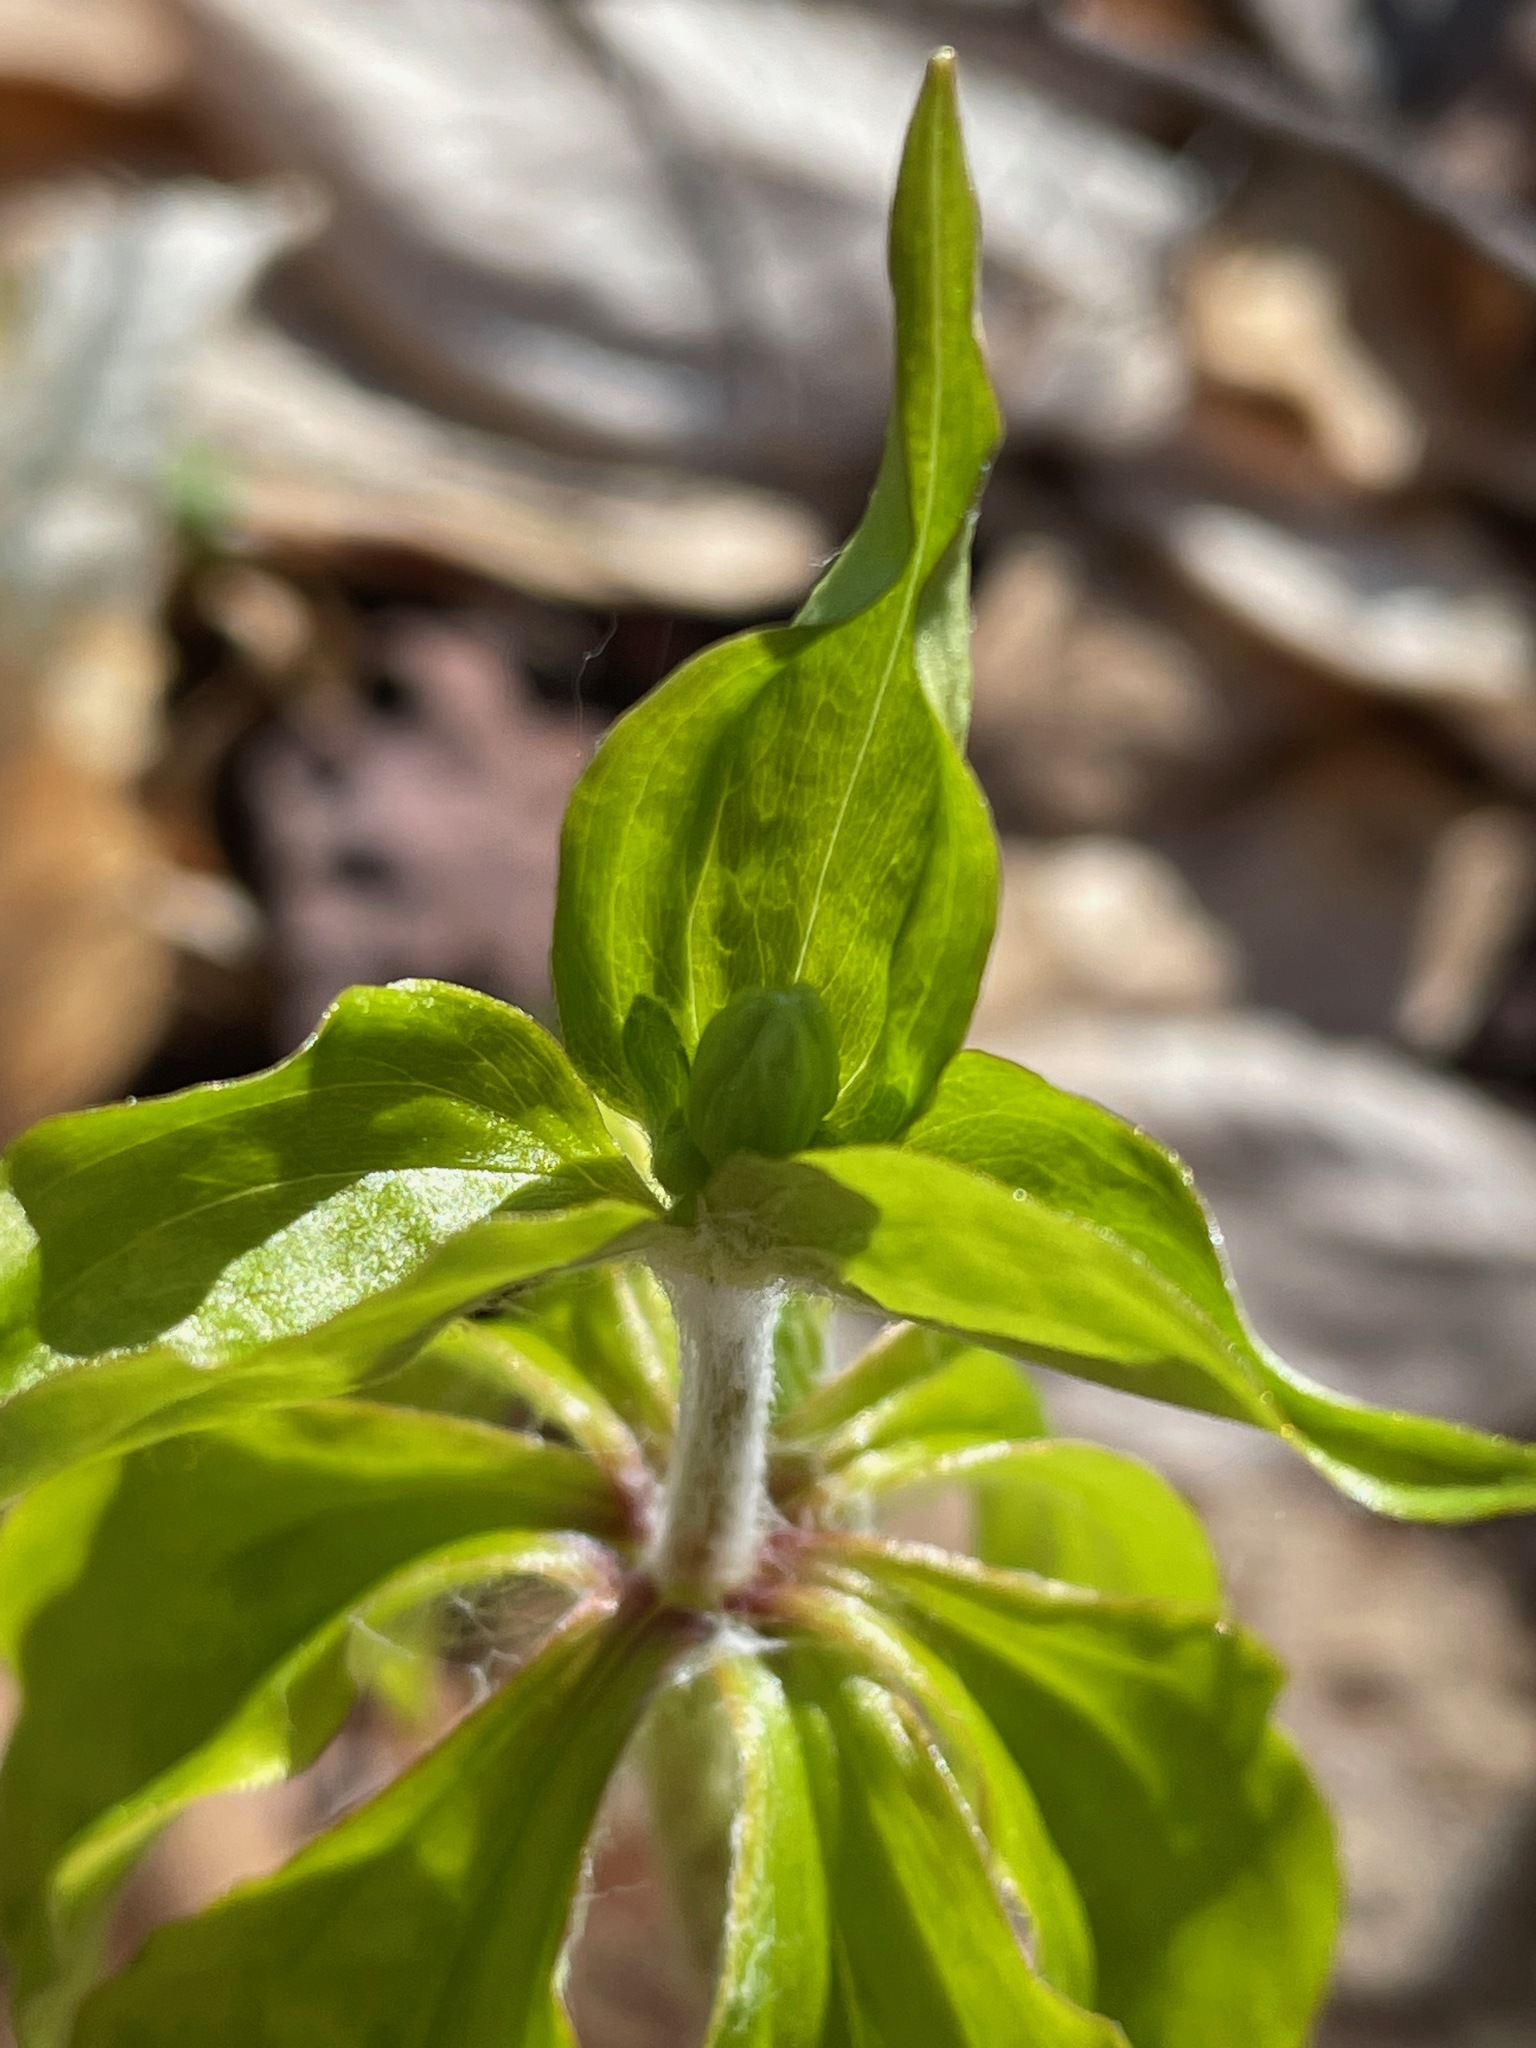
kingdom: Plantae
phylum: Tracheophyta
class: Liliopsida
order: Liliales
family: Liliaceae
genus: Medeola
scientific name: Medeola virginiana
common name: Indian cucumber-root
